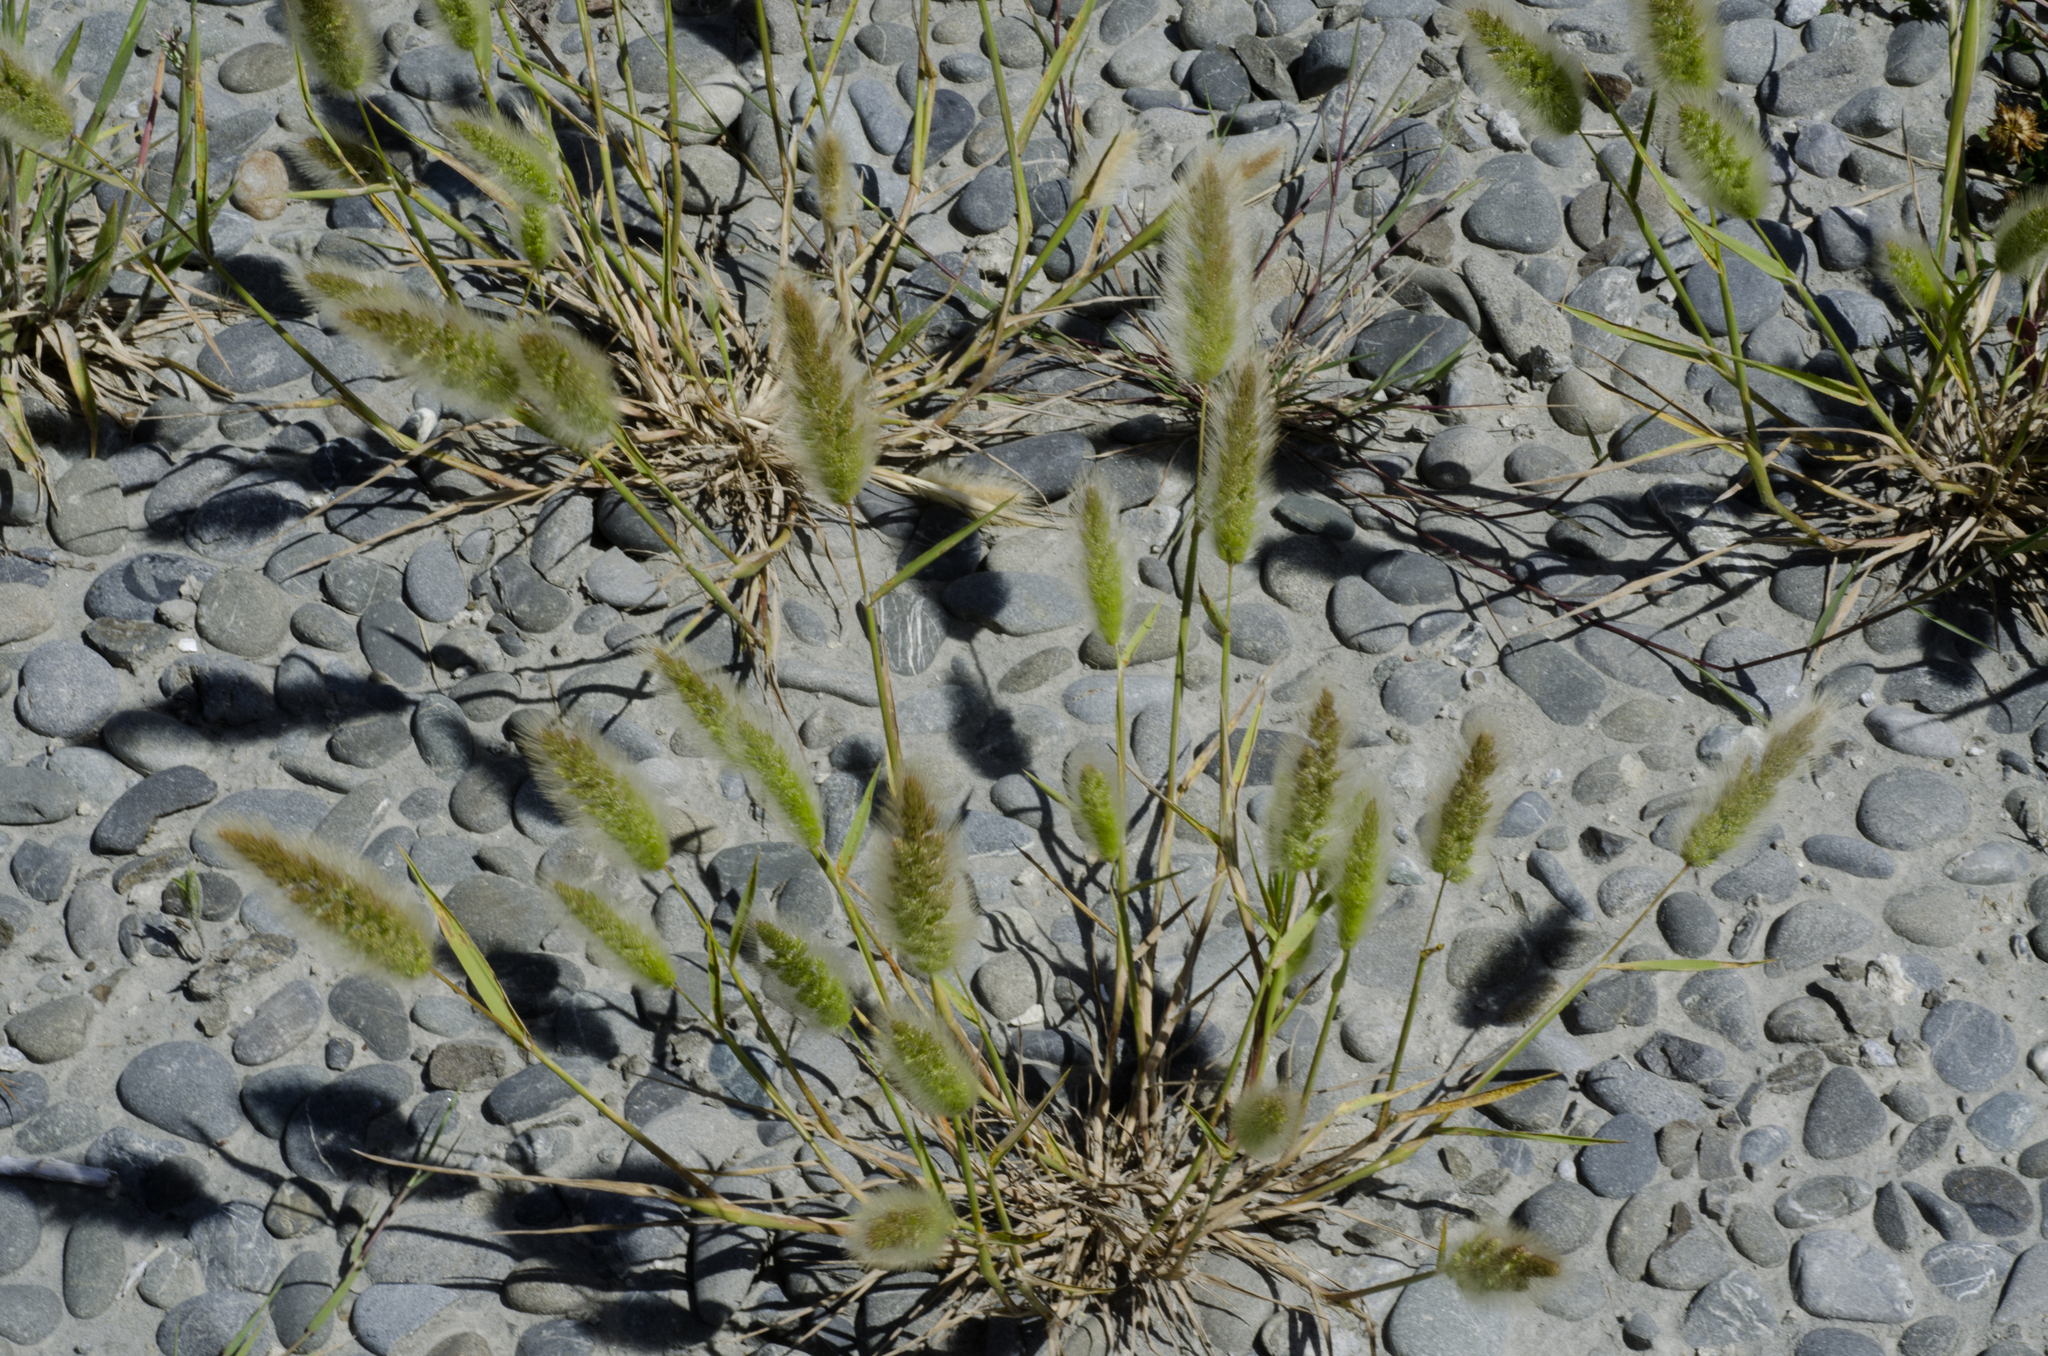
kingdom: Fungi
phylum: Basidiomycota
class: Pucciniomycetes
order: Pucciniales
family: Pucciniaceae
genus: Puccinia
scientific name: Puccinia polypogonobia
